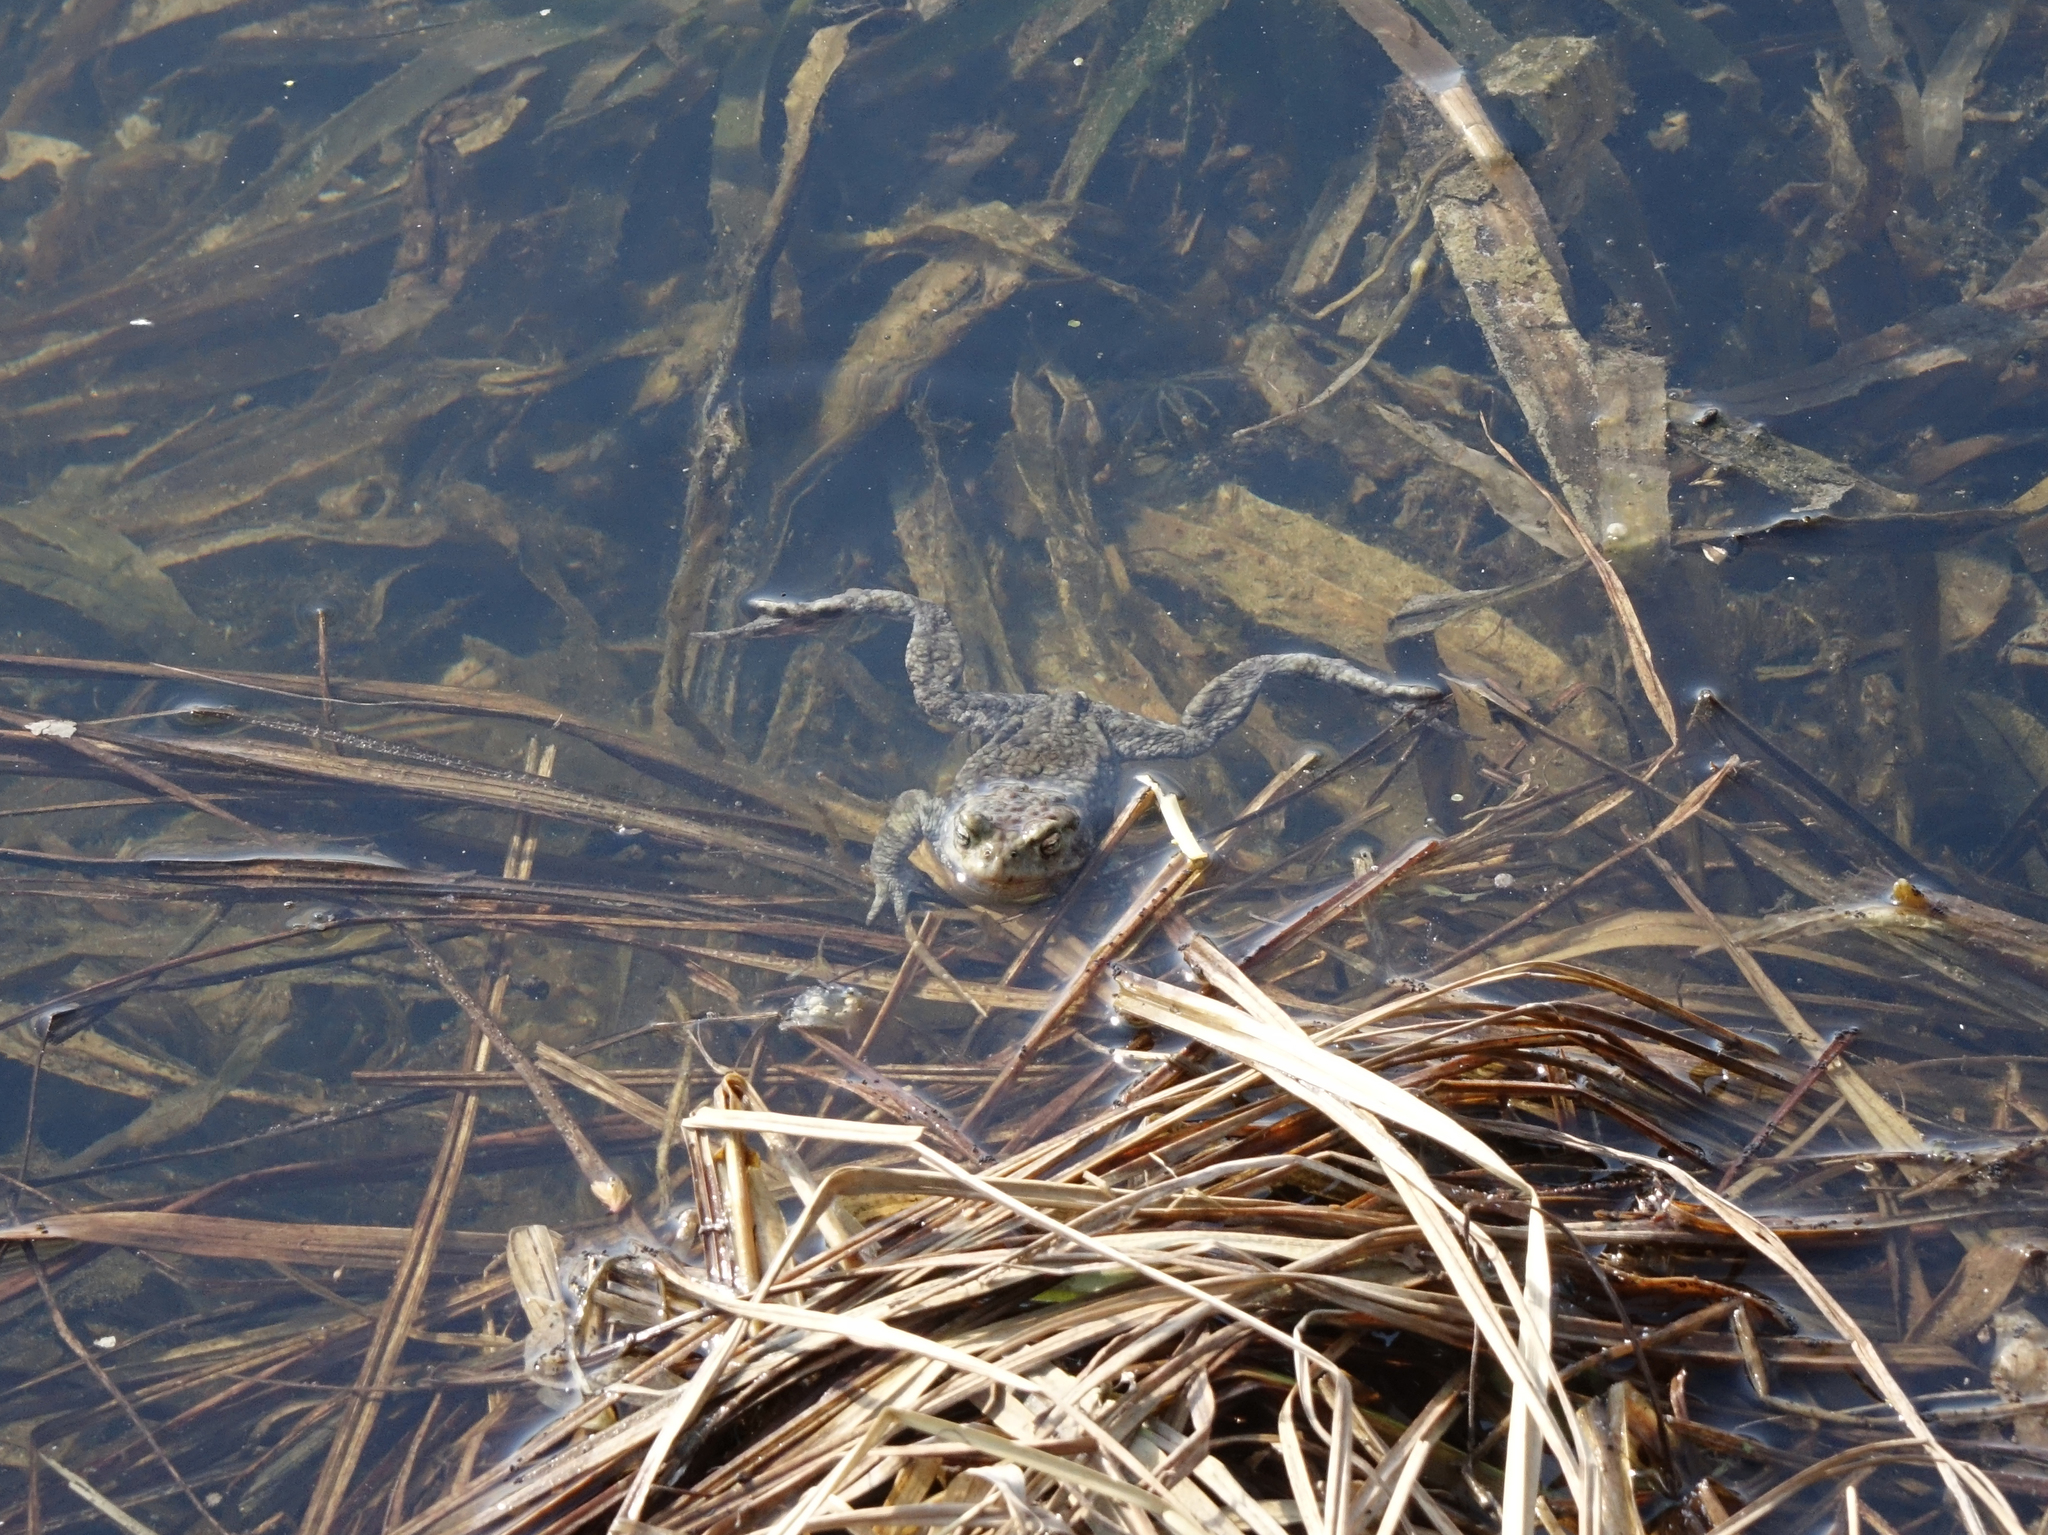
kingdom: Animalia
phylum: Chordata
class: Amphibia
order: Anura
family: Bufonidae
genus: Bufo
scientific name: Bufo bufo
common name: Common toad
